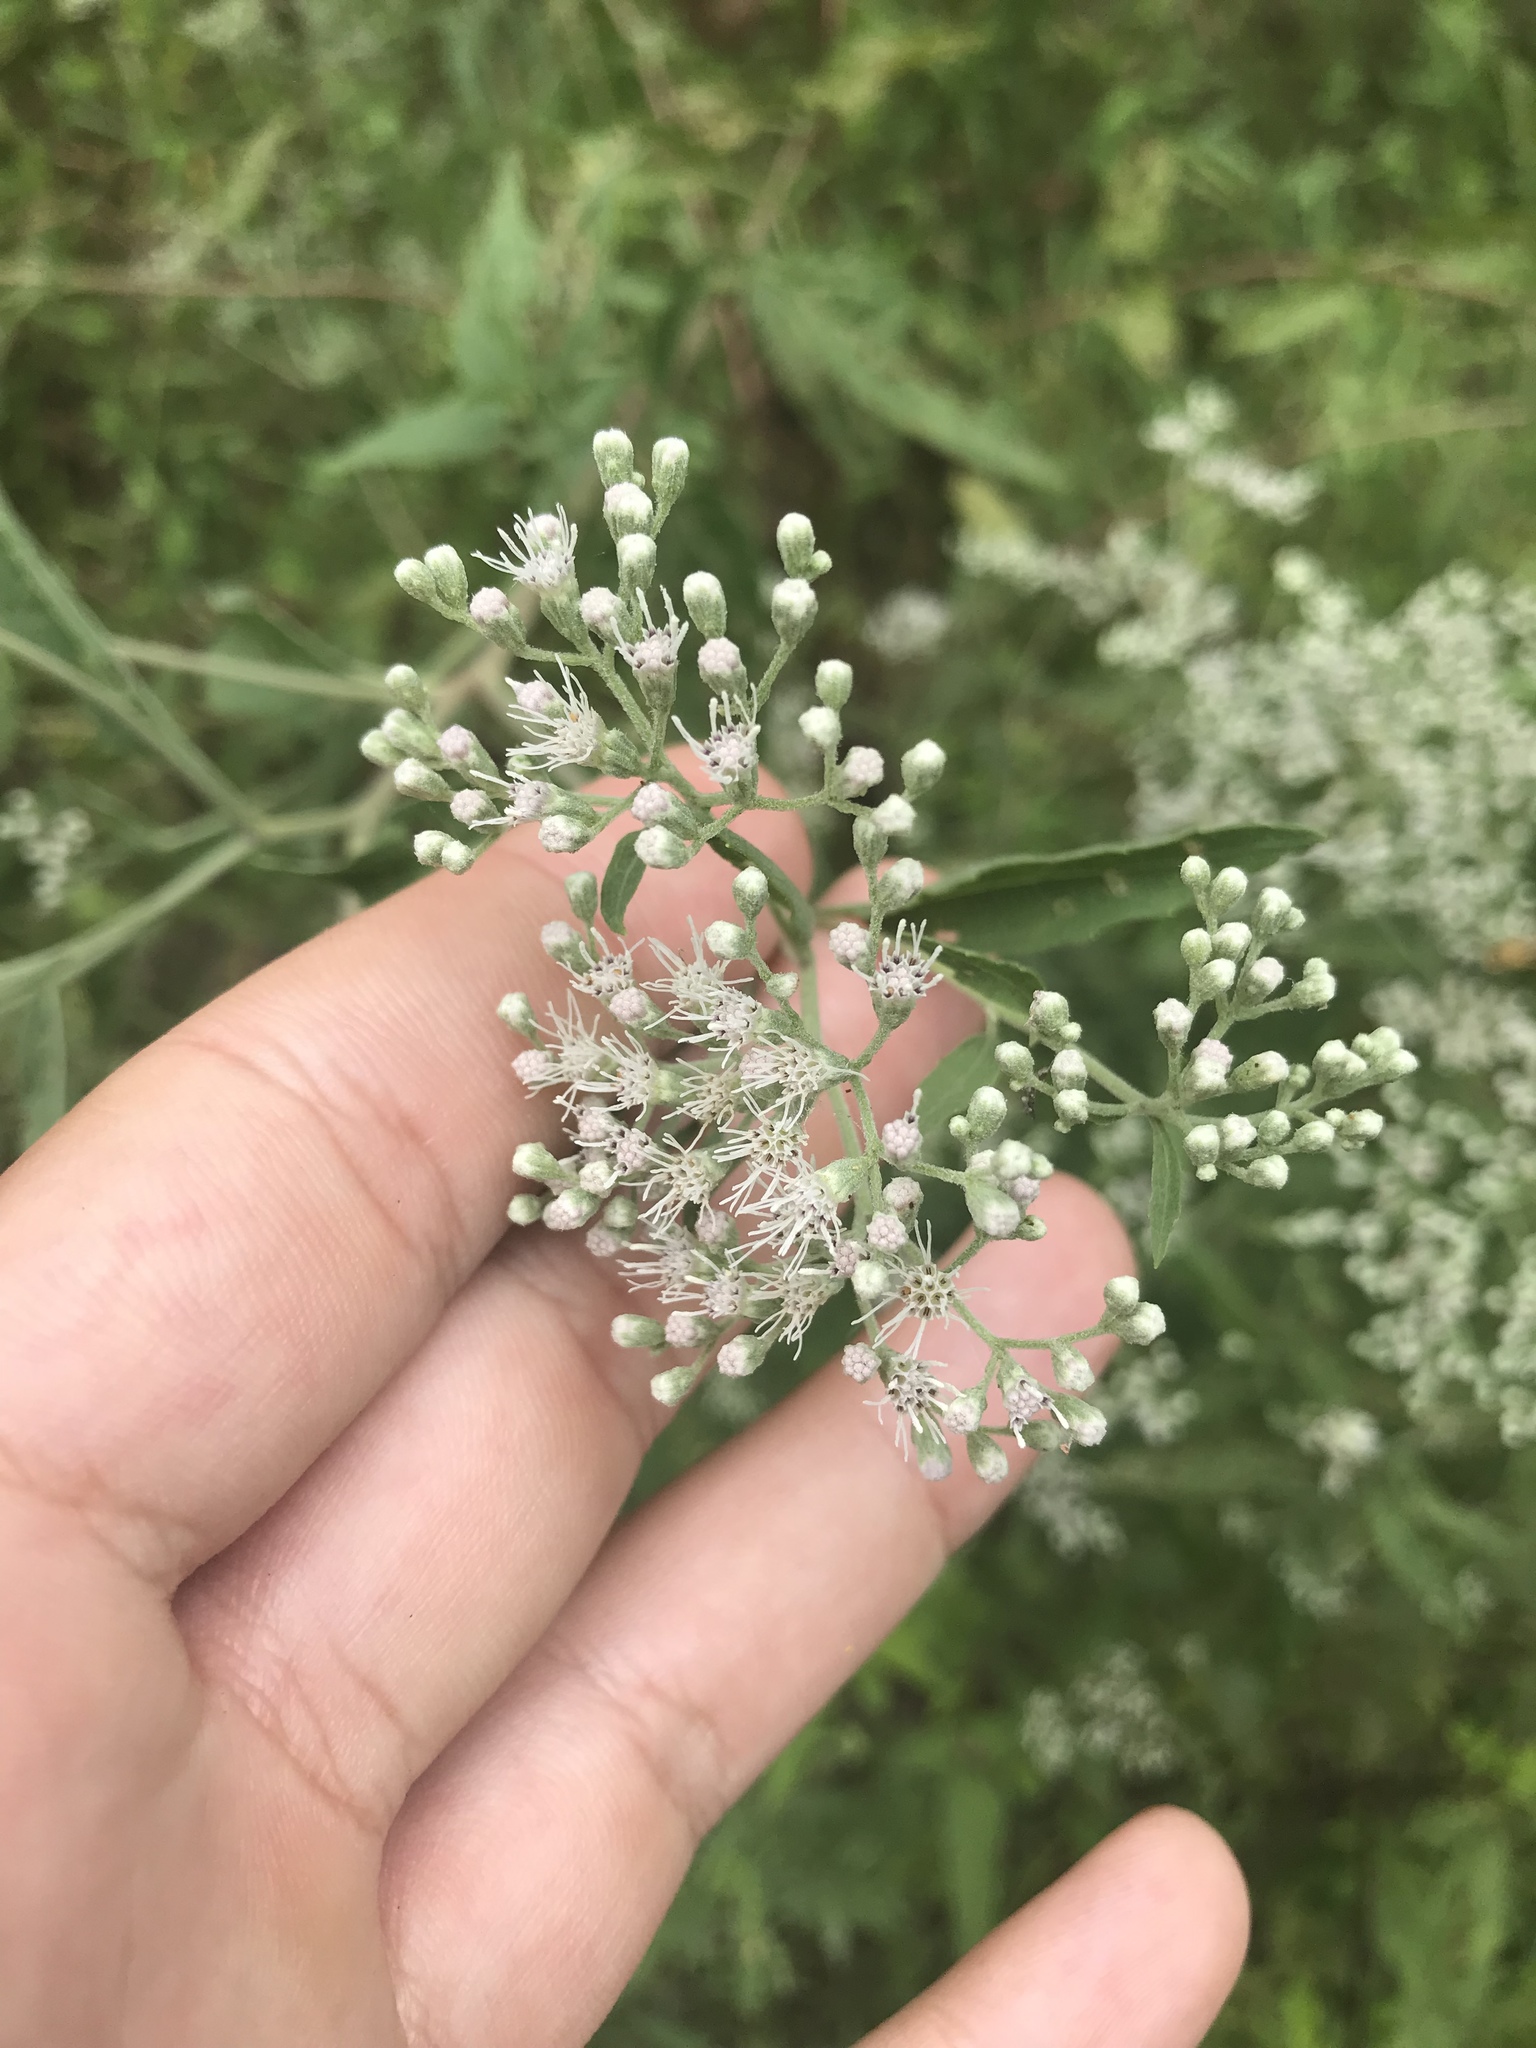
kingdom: Plantae
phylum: Tracheophyta
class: Magnoliopsida
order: Asterales
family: Asteraceae
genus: Eupatorium
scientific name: Eupatorium serotinum
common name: Late boneset
